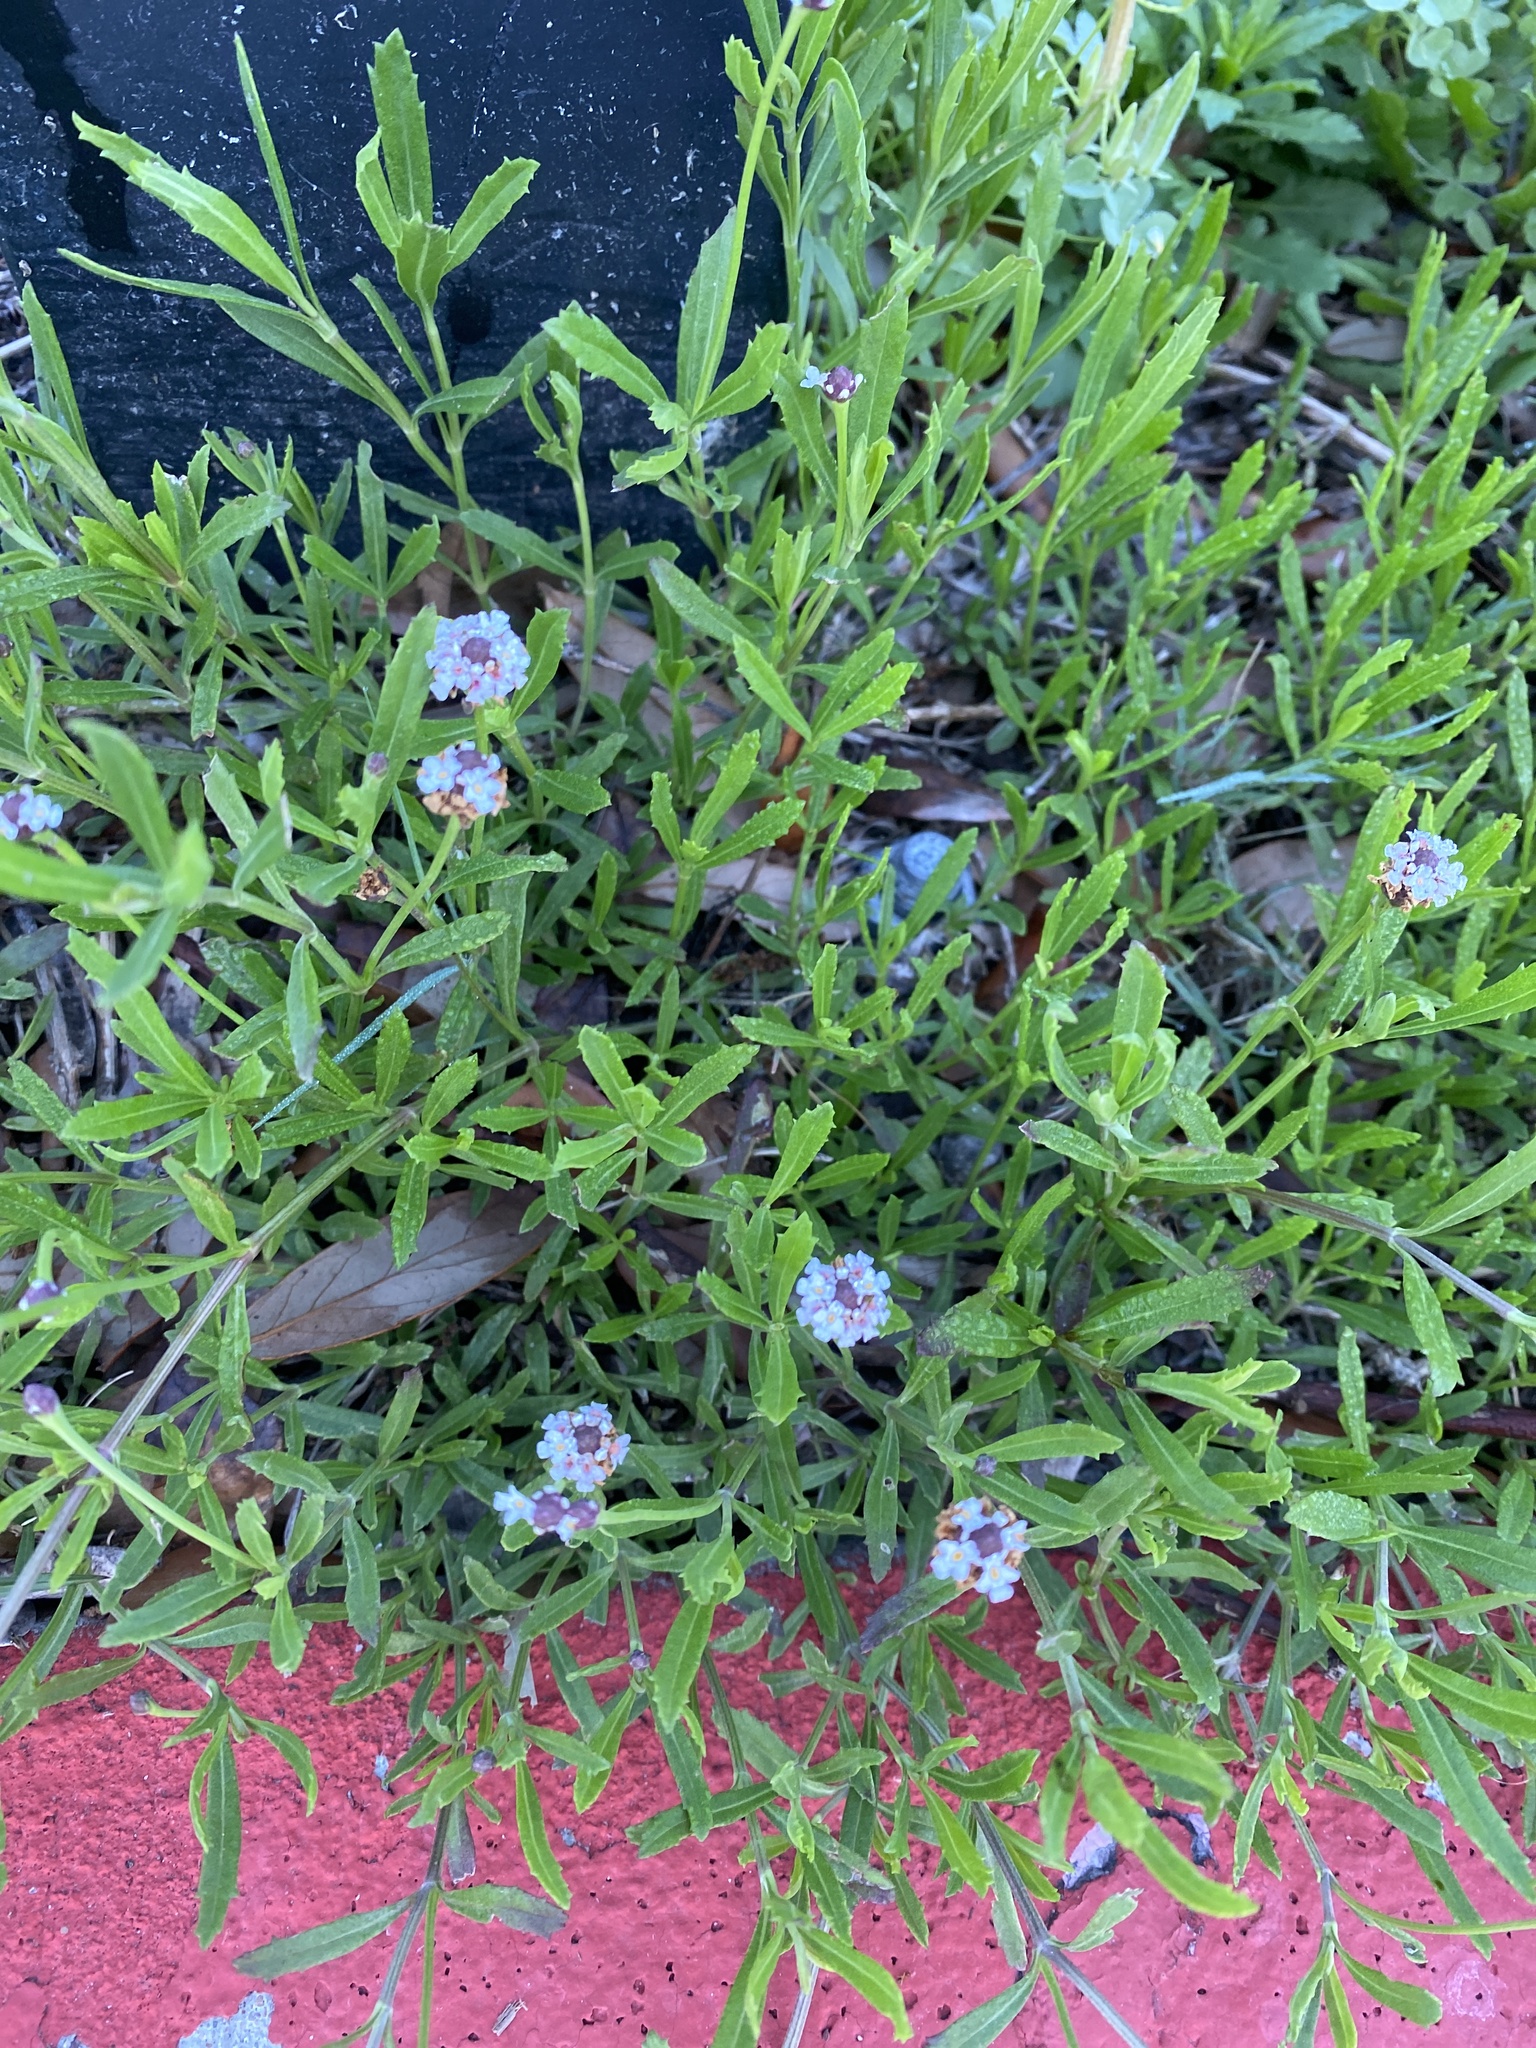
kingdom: Plantae
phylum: Tracheophyta
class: Magnoliopsida
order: Lamiales
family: Verbenaceae
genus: Phyla
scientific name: Phyla nodiflora
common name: Frogfruit
